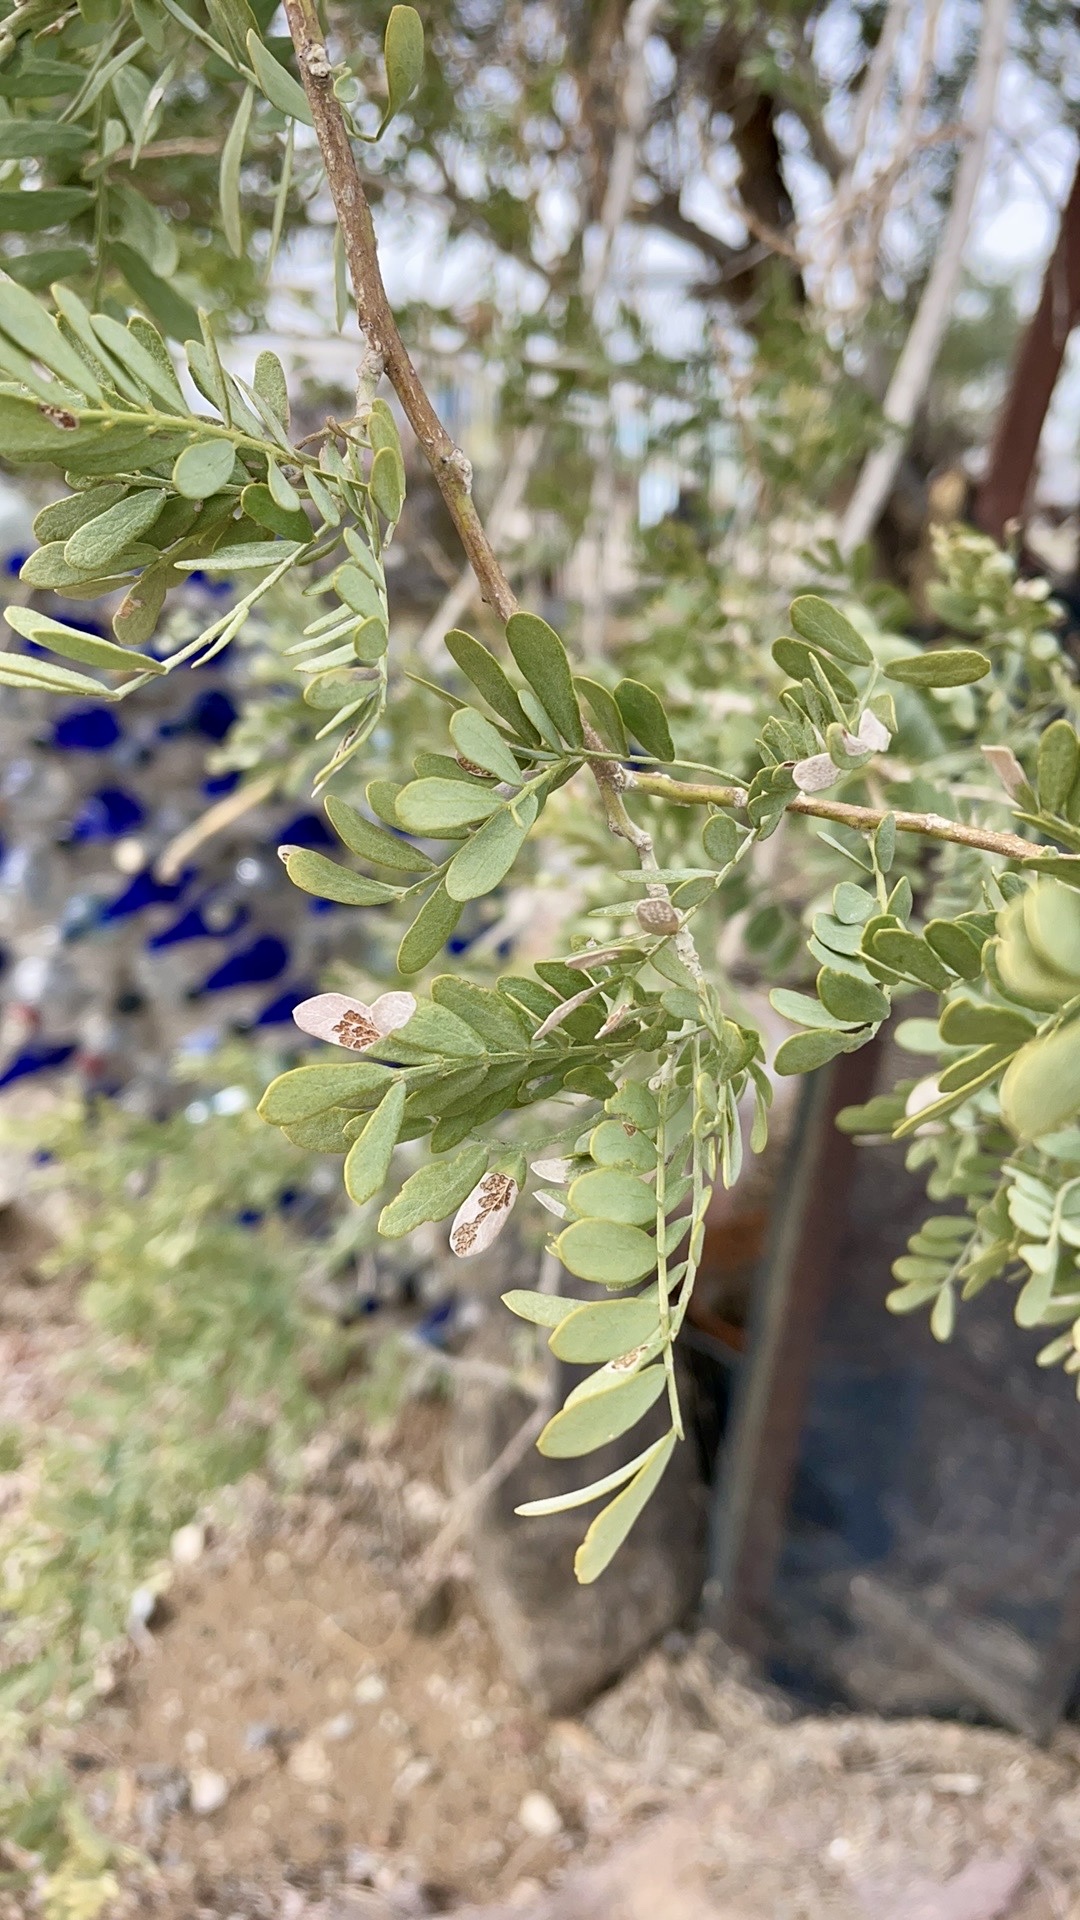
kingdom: Plantae
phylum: Tracheophyta
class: Magnoliopsida
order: Fabales
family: Fabaceae
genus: Olneya
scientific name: Olneya tesota
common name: Desert ironwood
